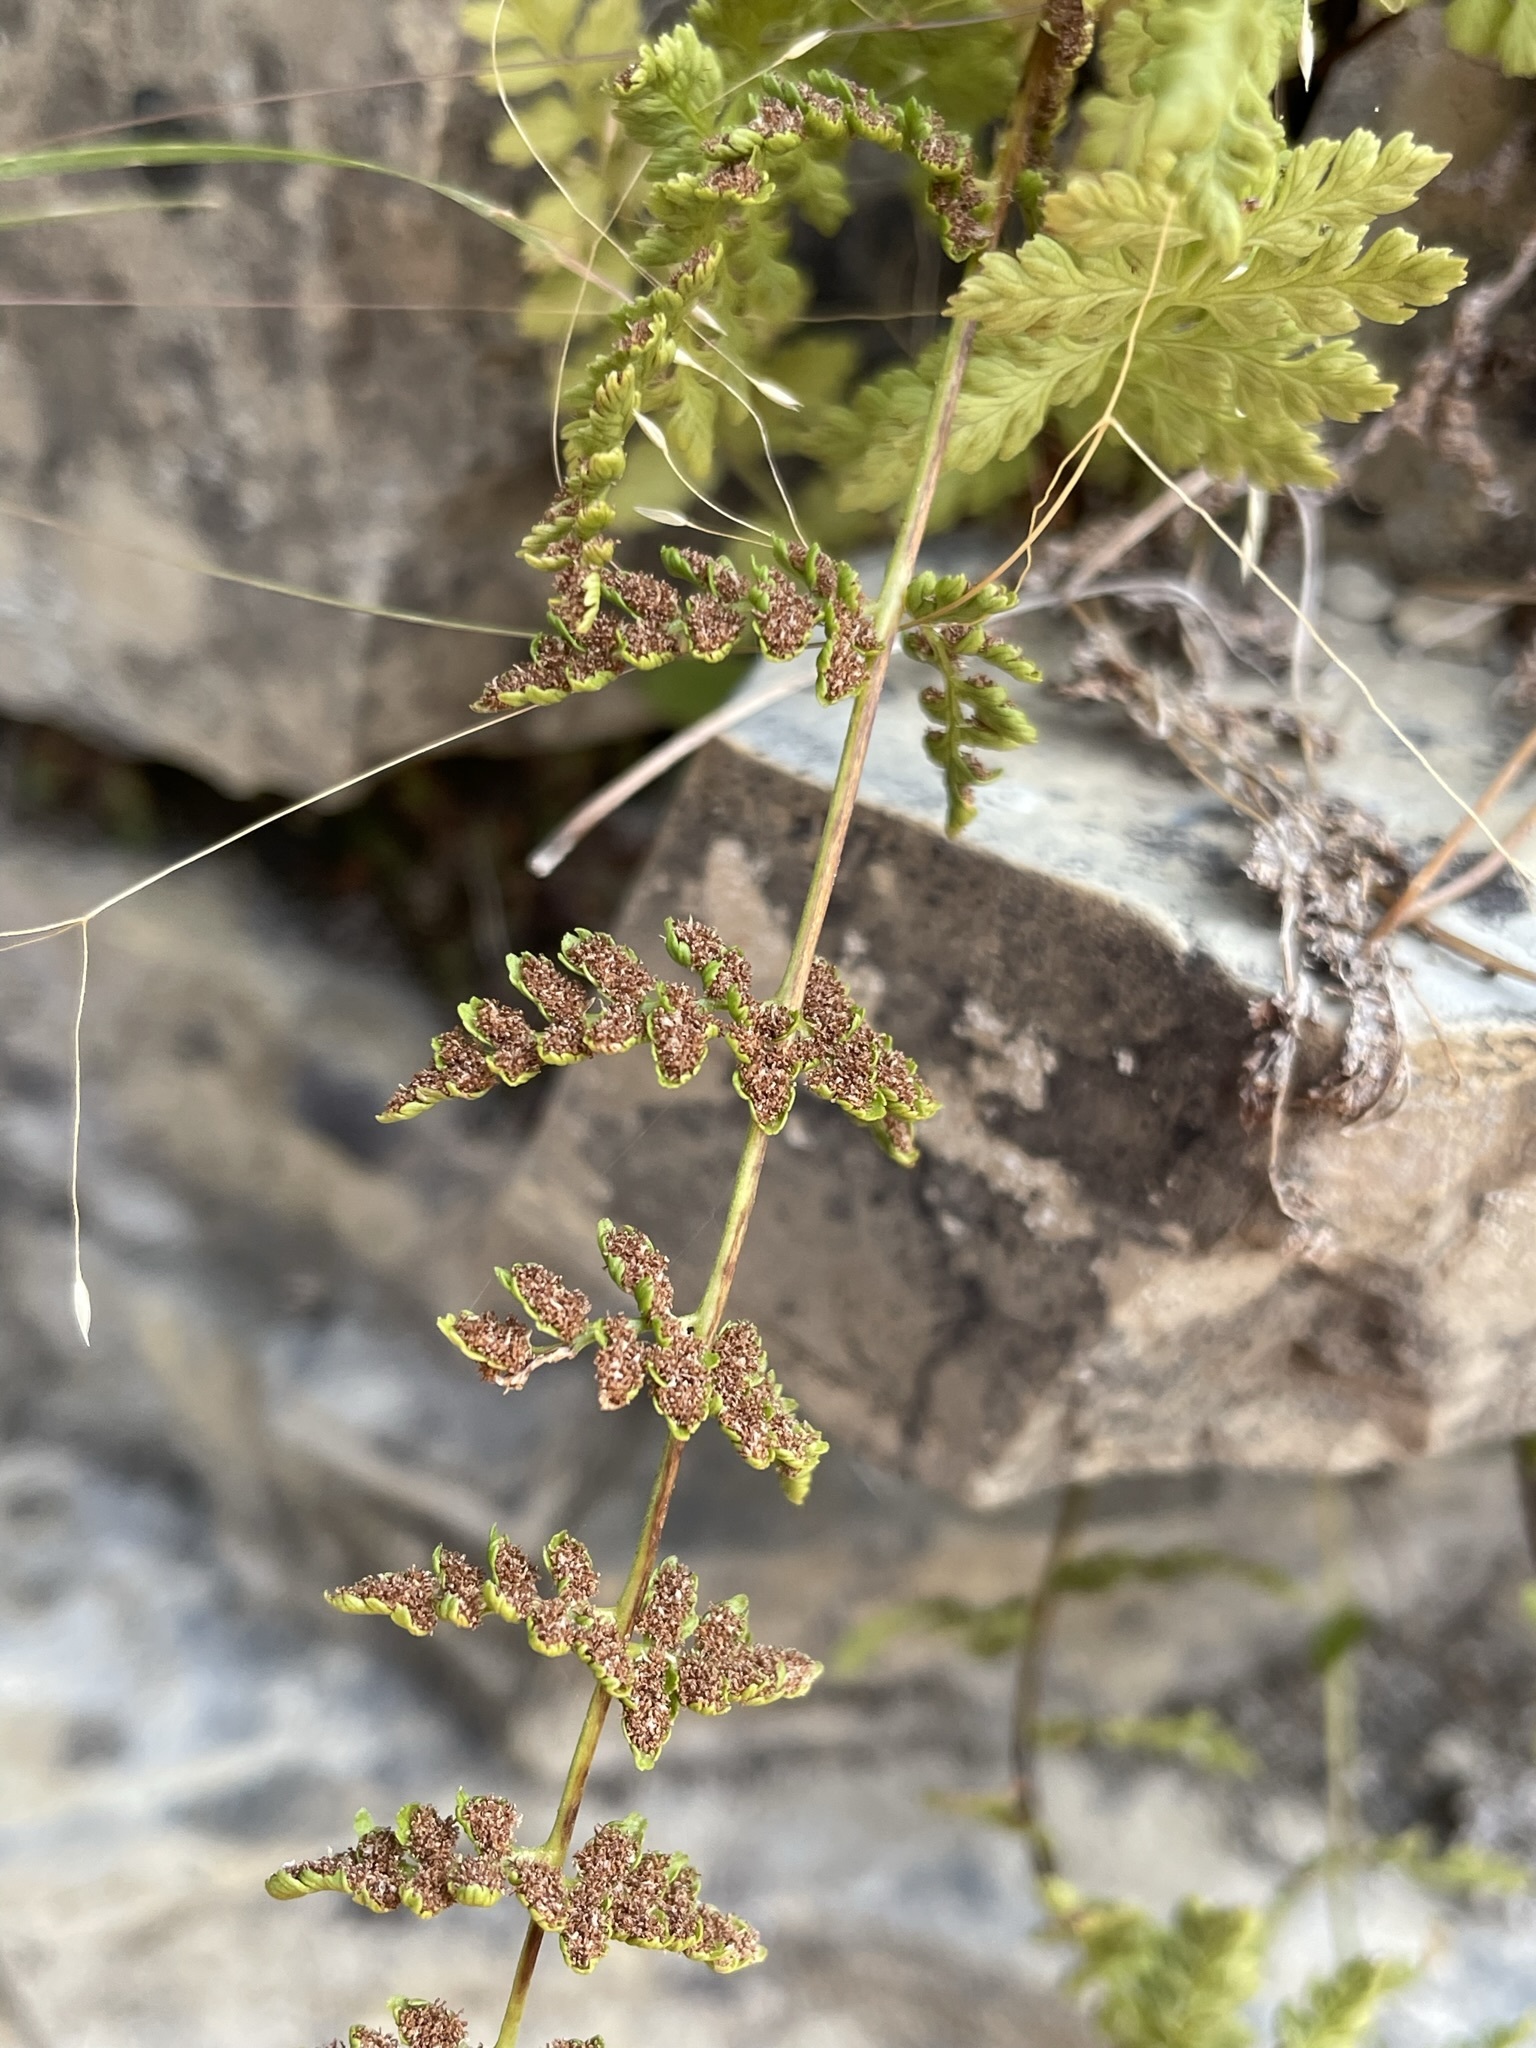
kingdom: Plantae
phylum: Tracheophyta
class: Polypodiopsida
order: Polypodiales
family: Cystopteridaceae
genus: Cystopteris
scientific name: Cystopteris fragilis
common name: Brittle bladder fern
